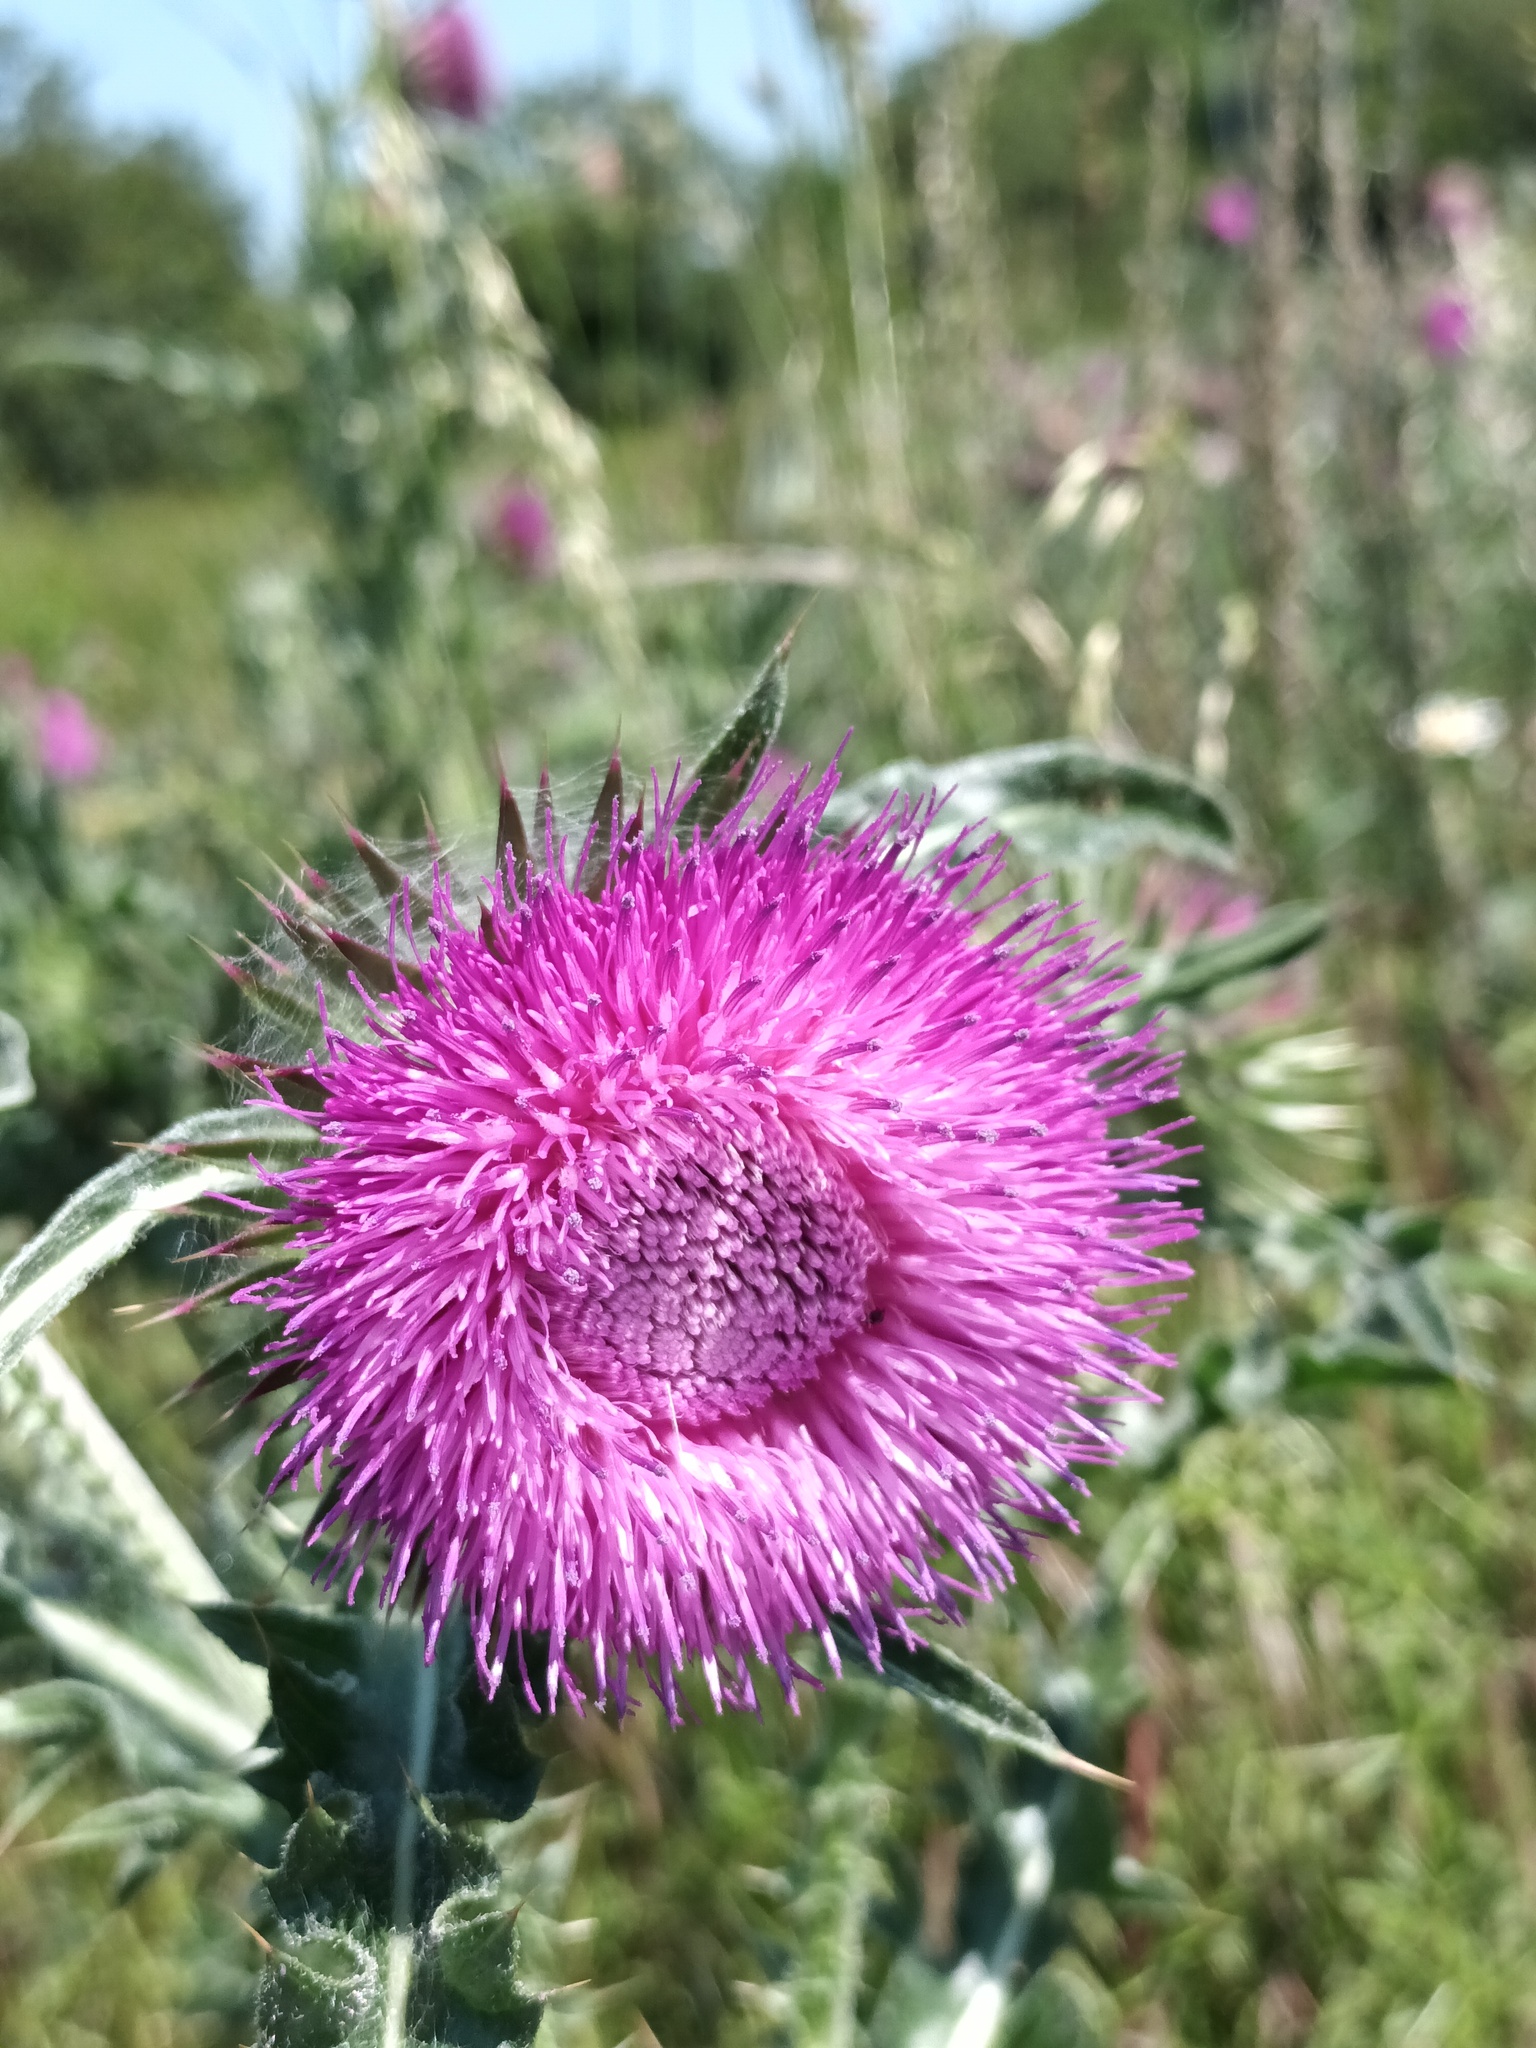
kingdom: Plantae
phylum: Tracheophyta
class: Magnoliopsida
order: Asterales
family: Asteraceae
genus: Carduus
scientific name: Carduus nutans
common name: Musk thistle
